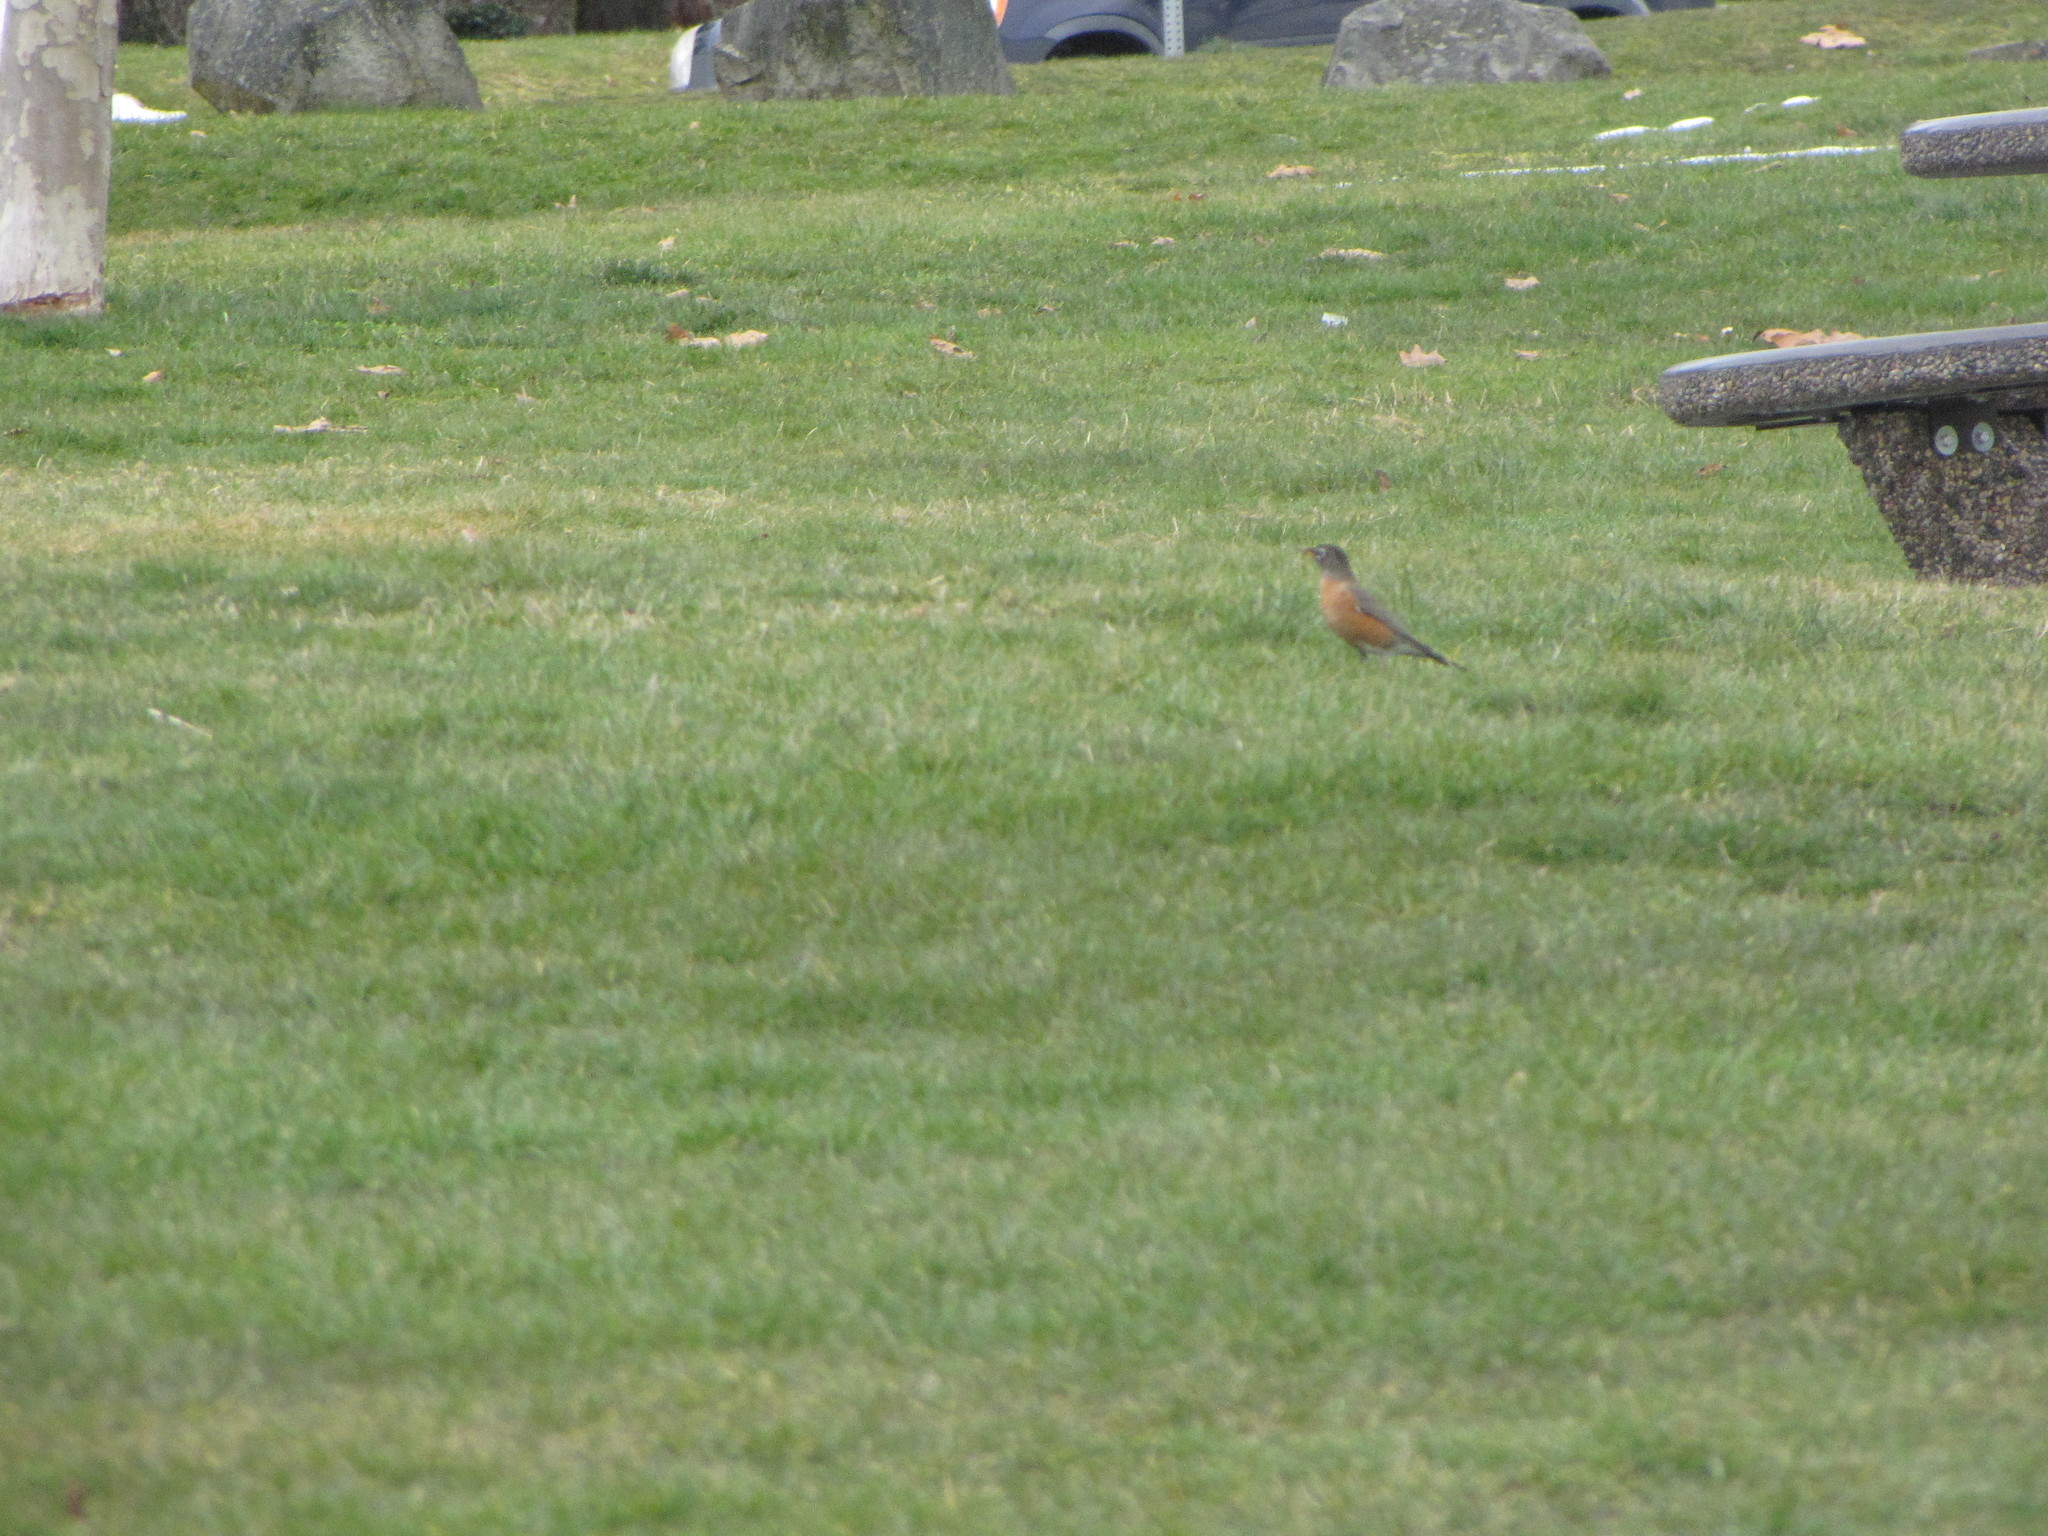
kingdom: Animalia
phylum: Chordata
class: Aves
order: Passeriformes
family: Turdidae
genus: Turdus
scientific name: Turdus migratorius
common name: American robin
